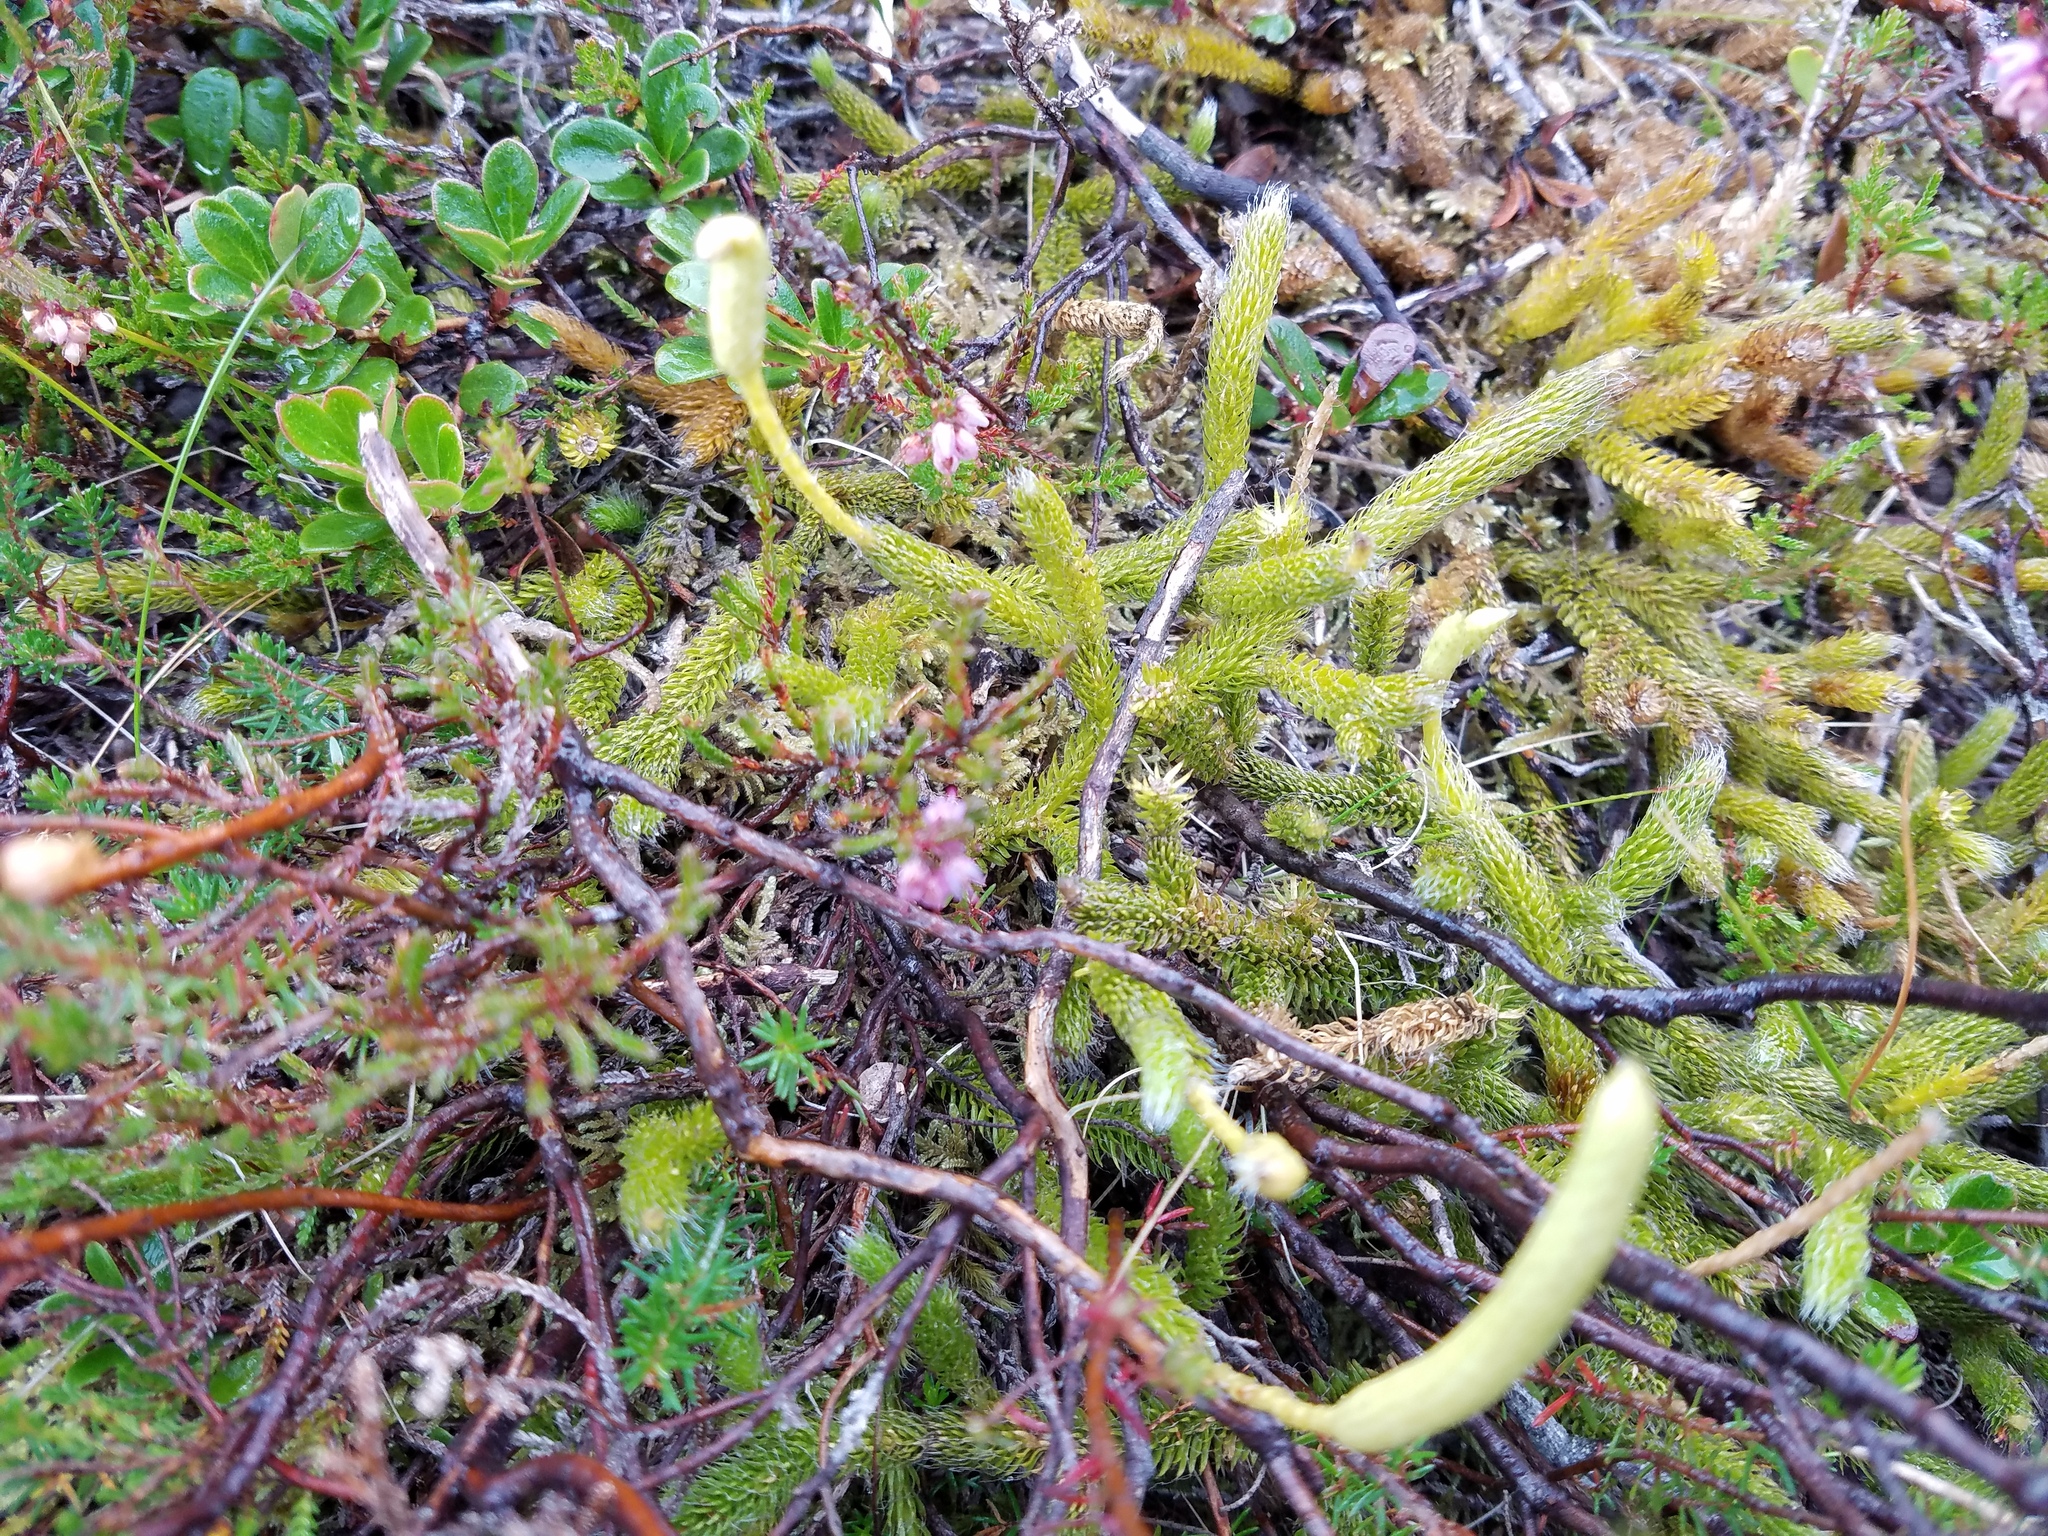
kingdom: Plantae
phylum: Tracheophyta
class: Lycopodiopsida
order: Lycopodiales
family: Lycopodiaceae
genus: Lycopodium
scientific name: Lycopodium clavatum
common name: Stag's-horn clubmoss
